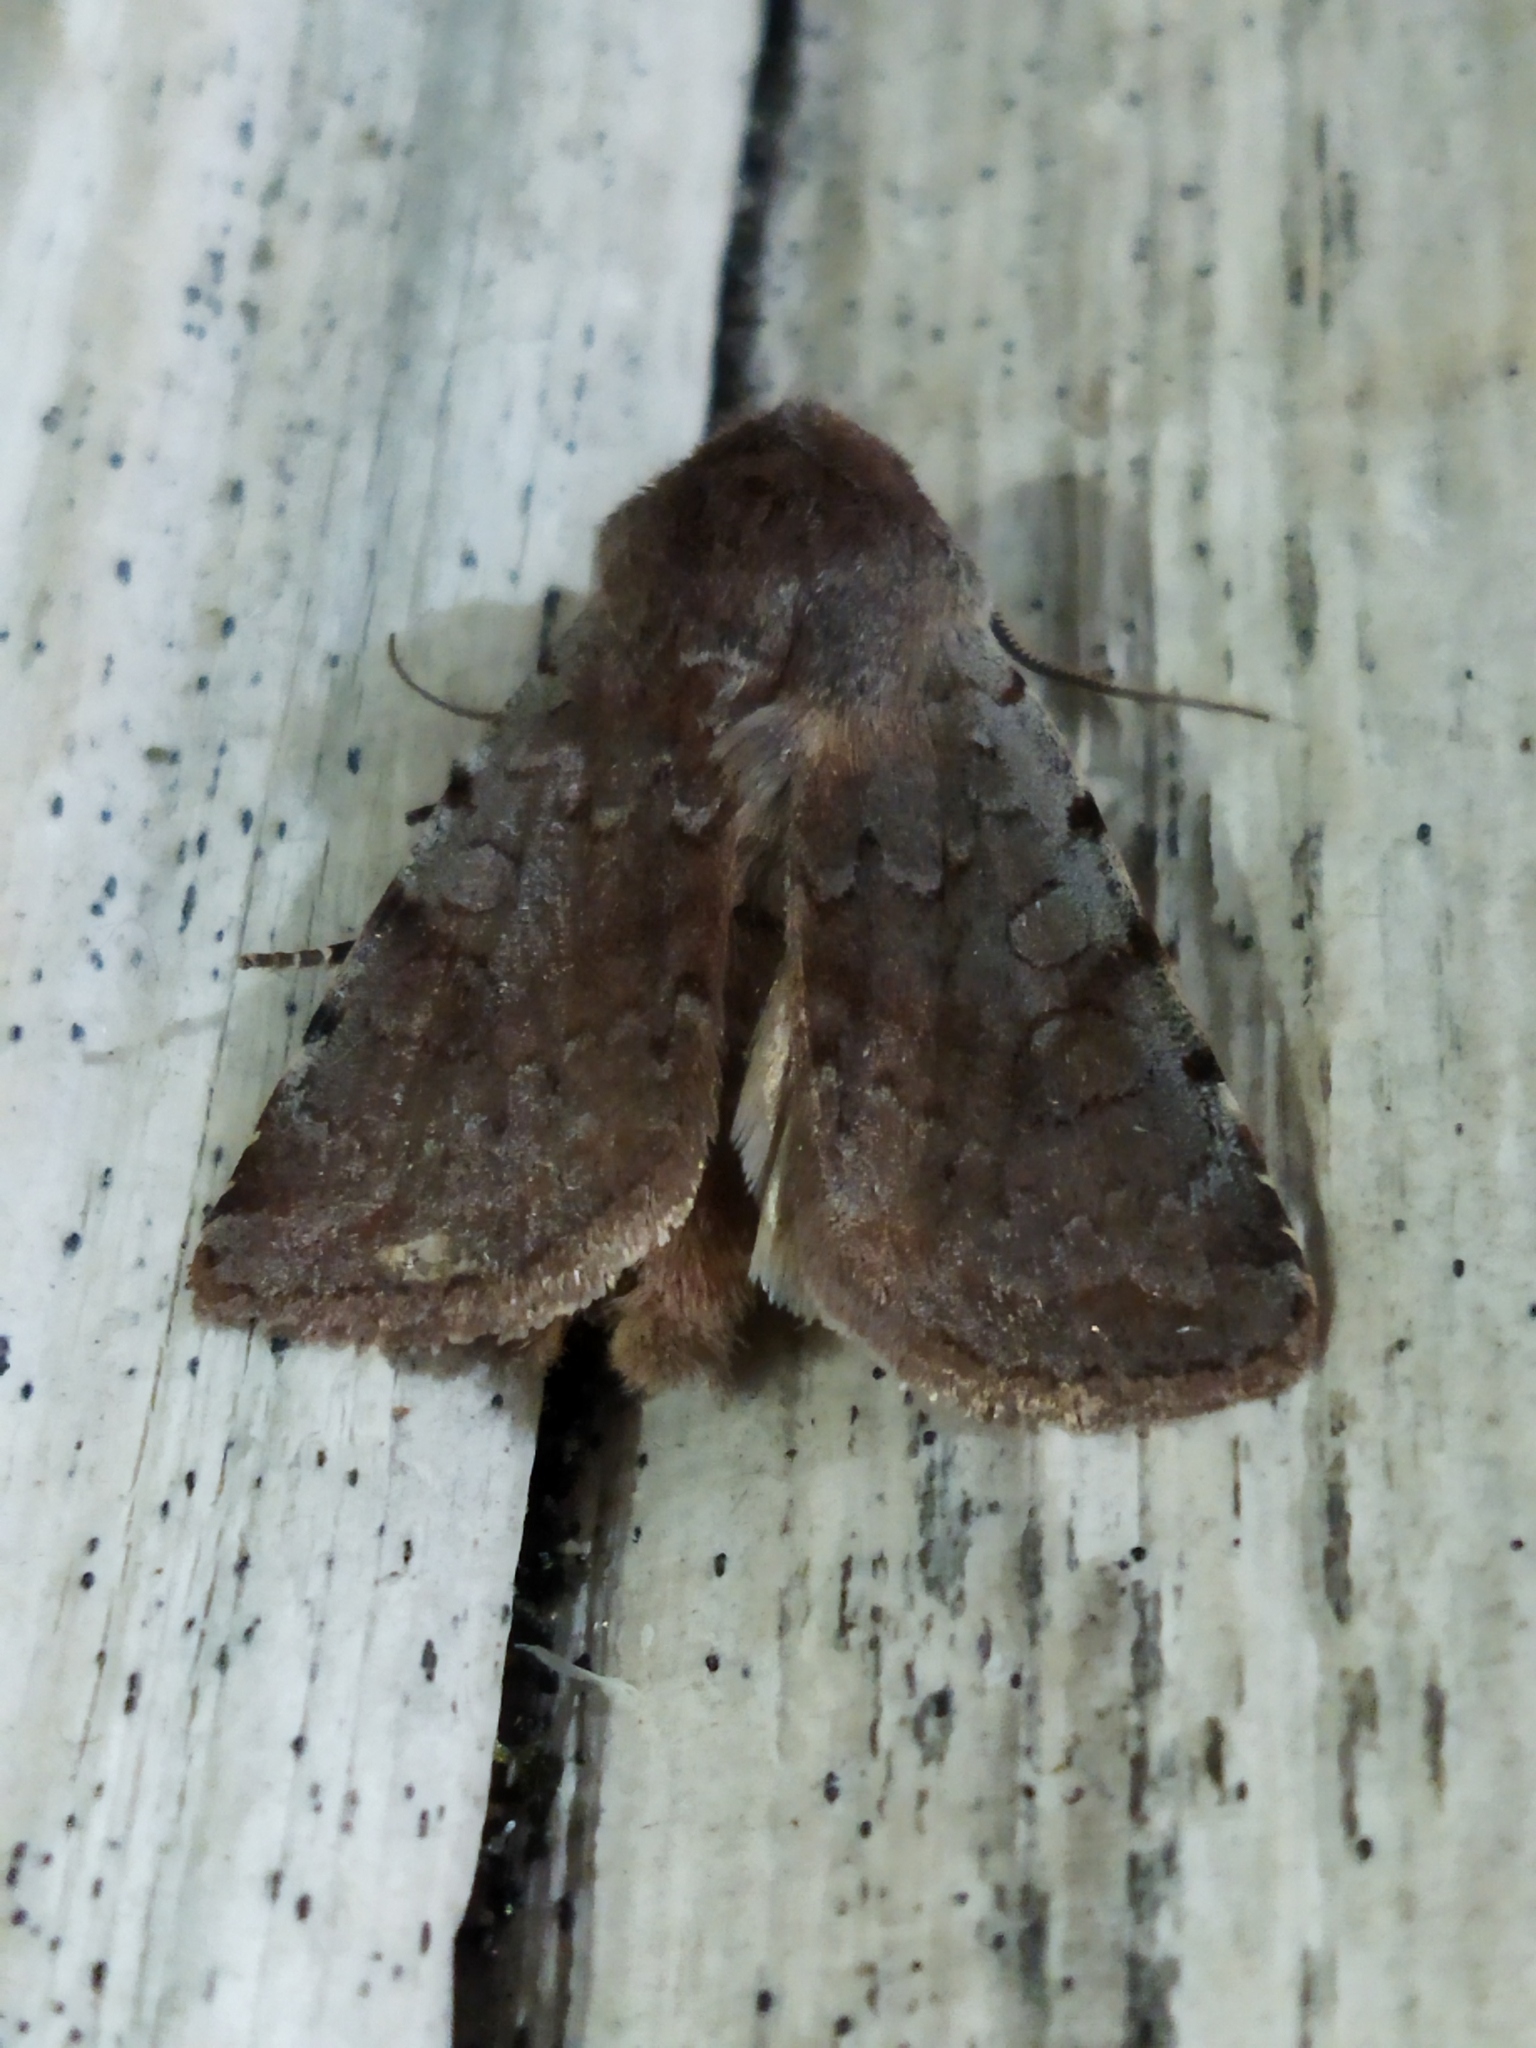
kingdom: Animalia
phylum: Arthropoda
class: Insecta
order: Lepidoptera
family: Noctuidae
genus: Cerastis
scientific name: Cerastis rubricosa
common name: Red chestnut
